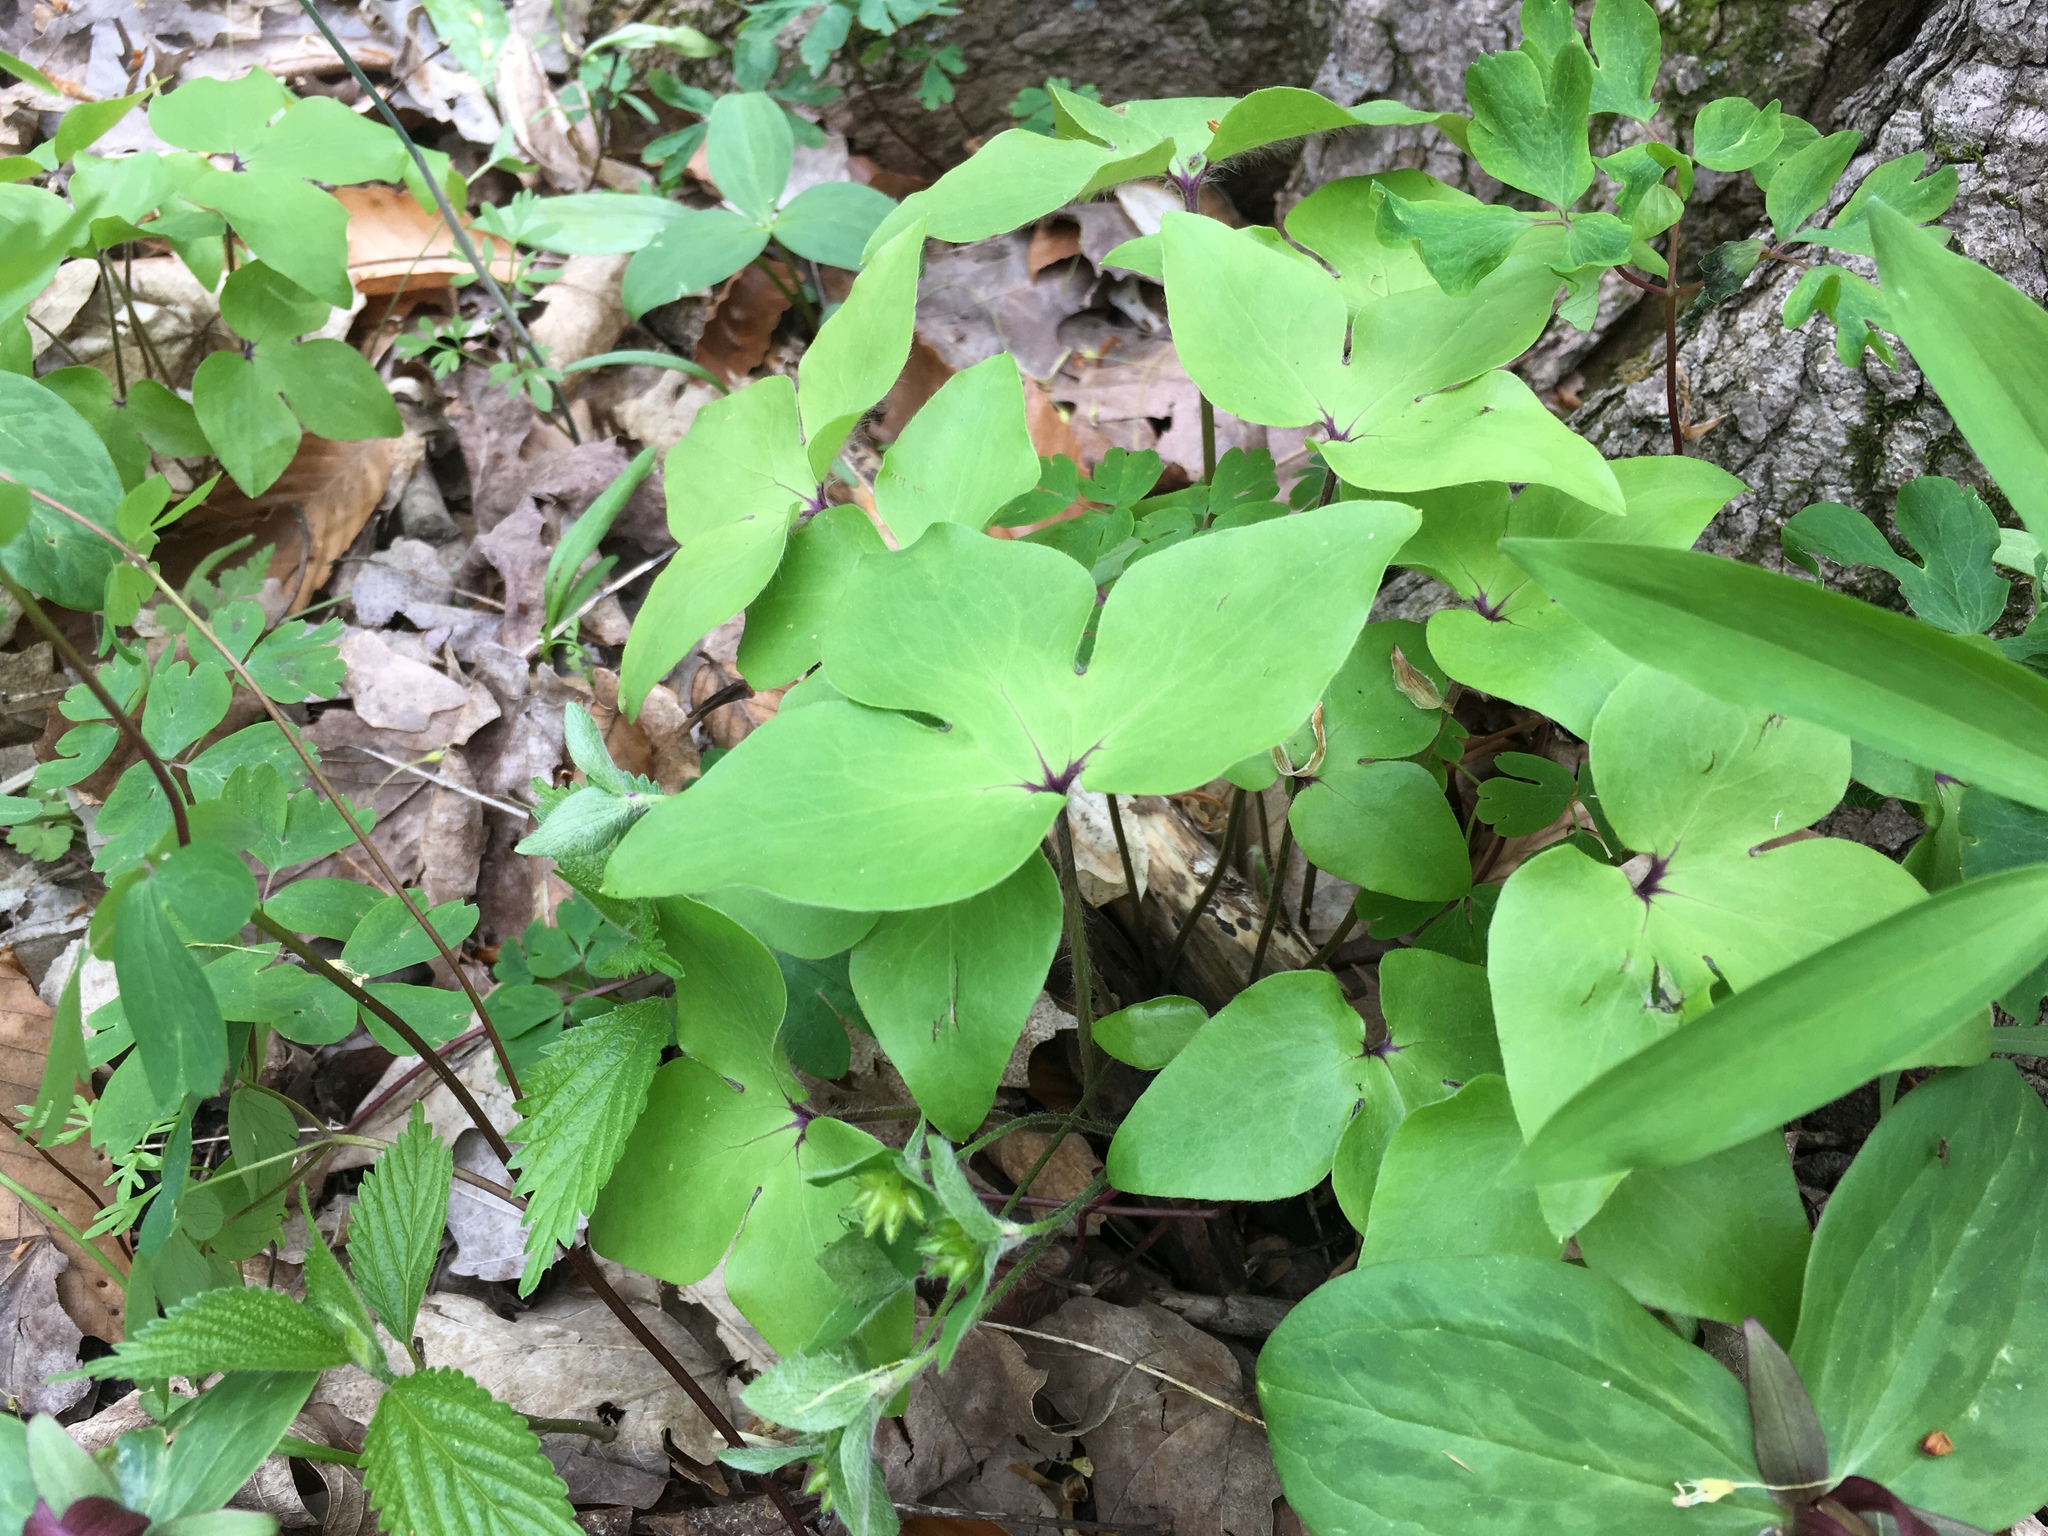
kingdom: Plantae
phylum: Tracheophyta
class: Magnoliopsida
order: Ranunculales
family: Ranunculaceae
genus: Hepatica
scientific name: Hepatica acutiloba
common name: Sharp-lobed hepatica
